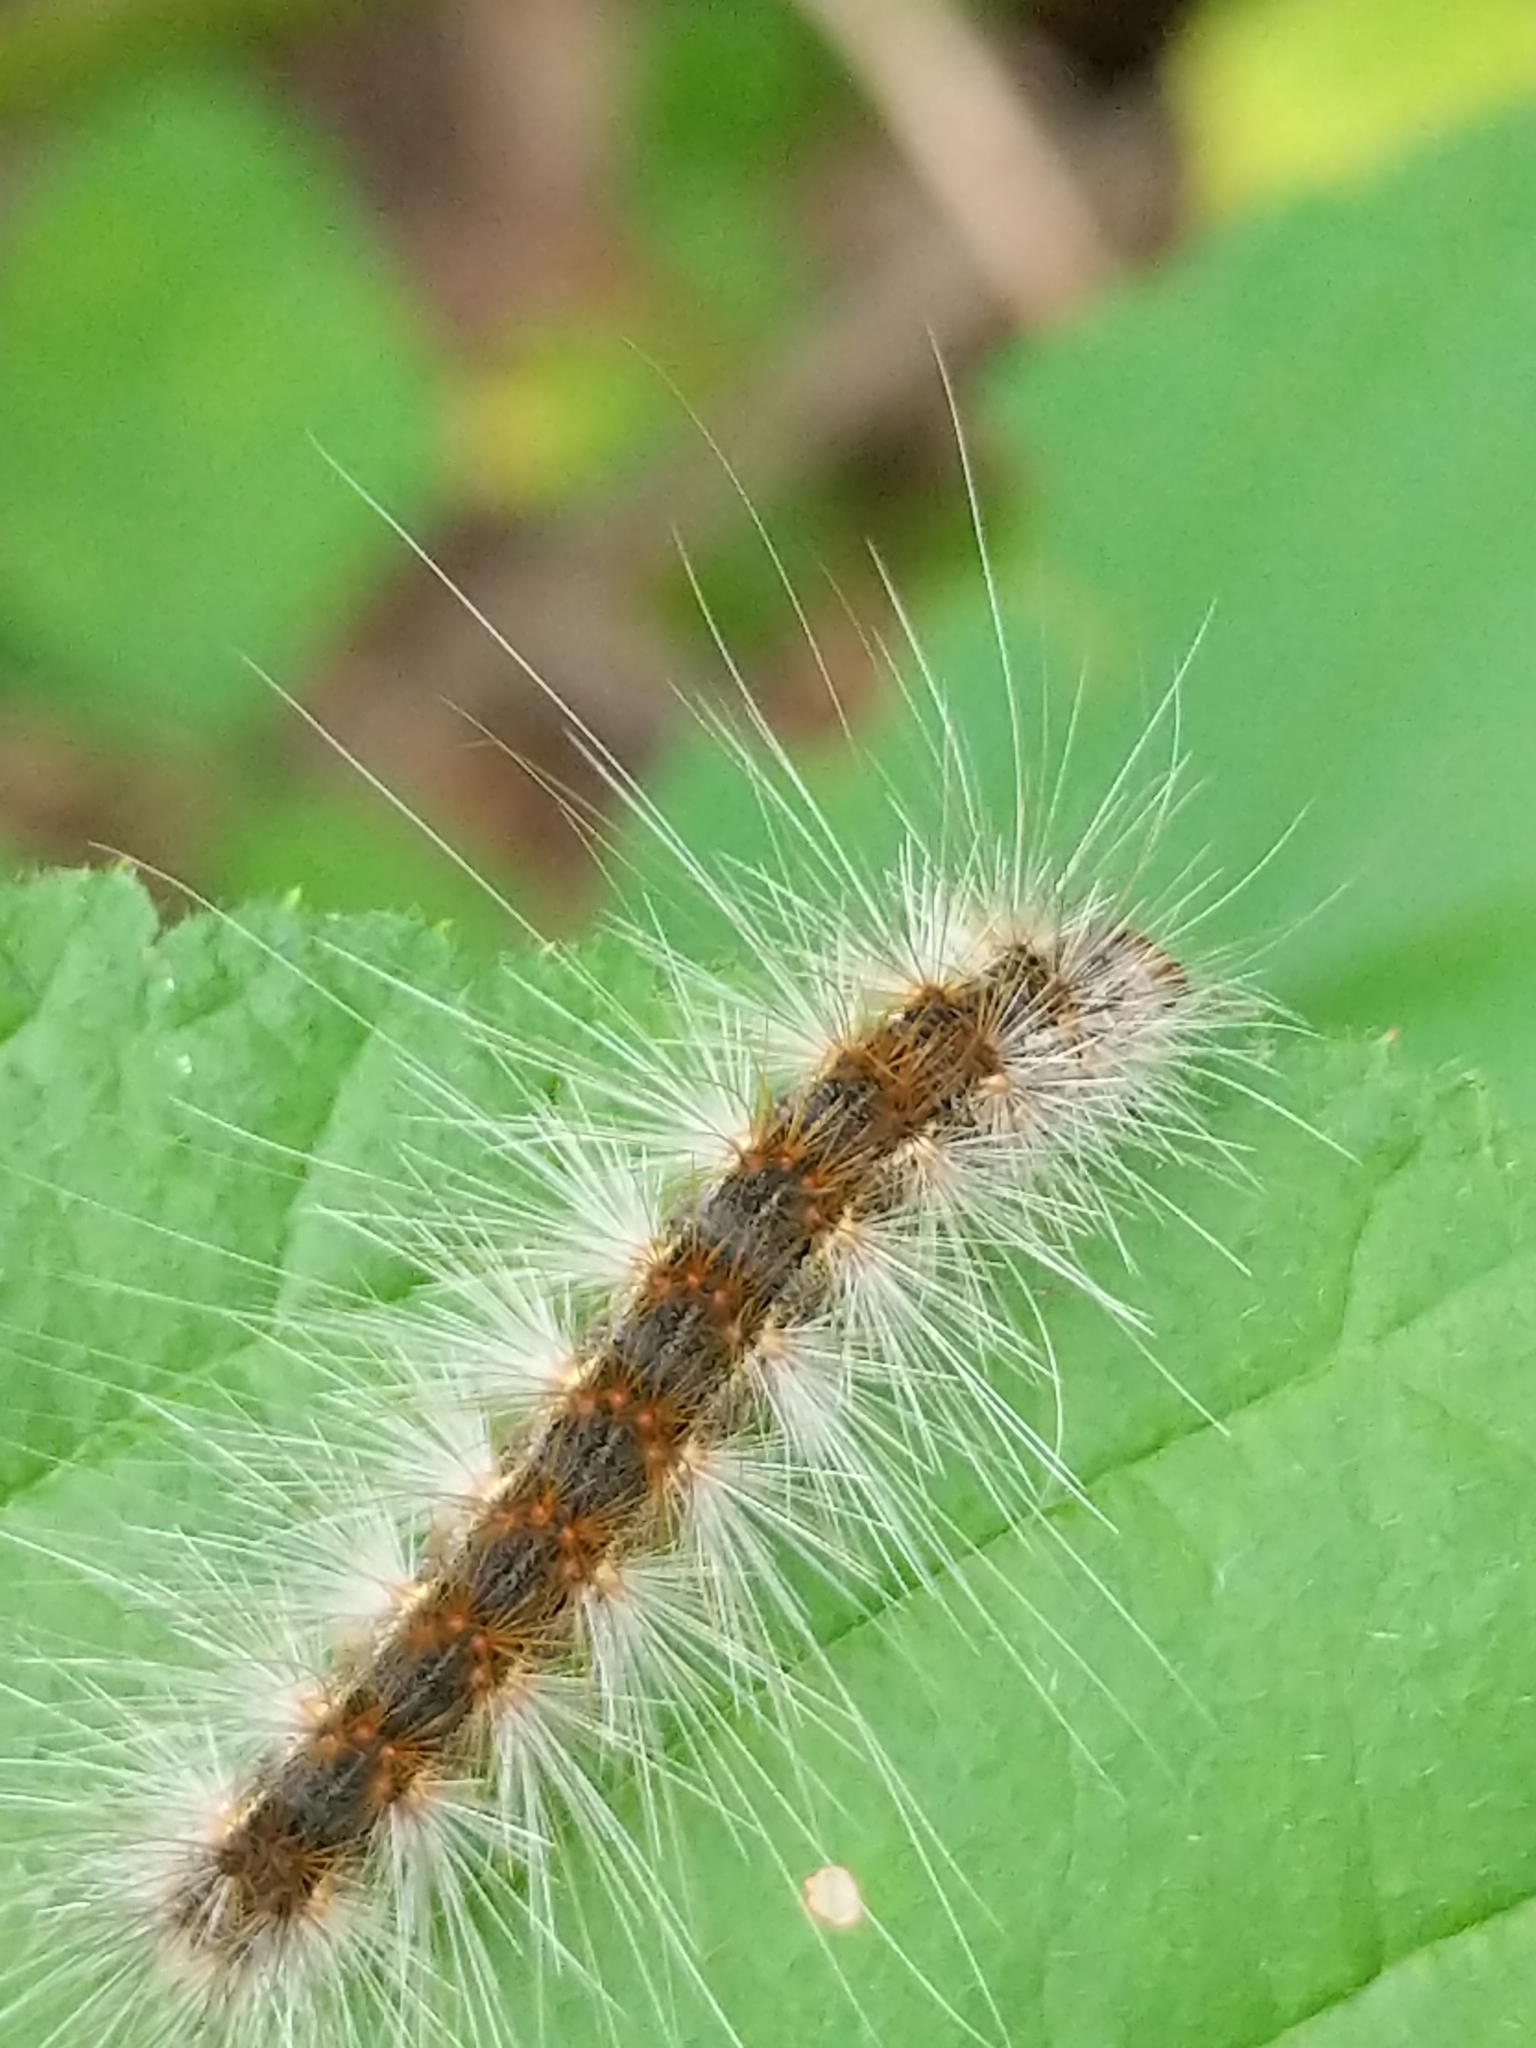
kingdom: Animalia
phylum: Arthropoda
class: Insecta
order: Lepidoptera
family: Erebidae
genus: Hyphantria
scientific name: Hyphantria cunea
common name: American white moth
